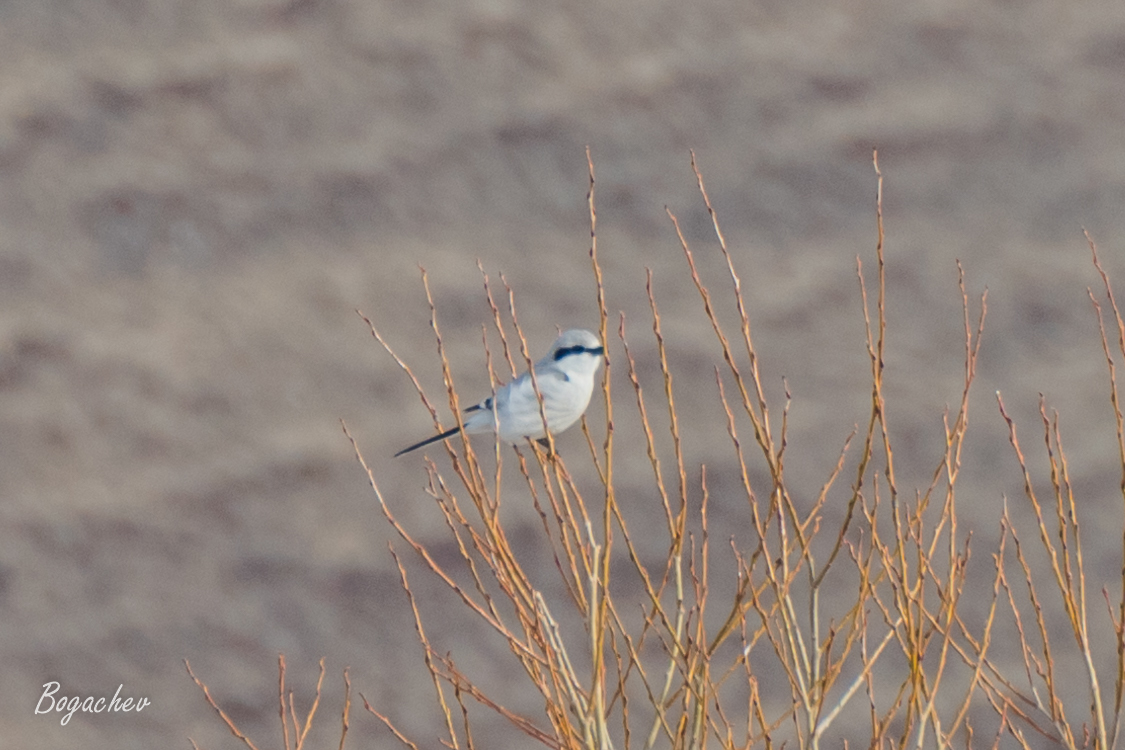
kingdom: Animalia
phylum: Chordata
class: Aves
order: Passeriformes
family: Laniidae
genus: Lanius
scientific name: Lanius excubitor
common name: Great grey shrike
